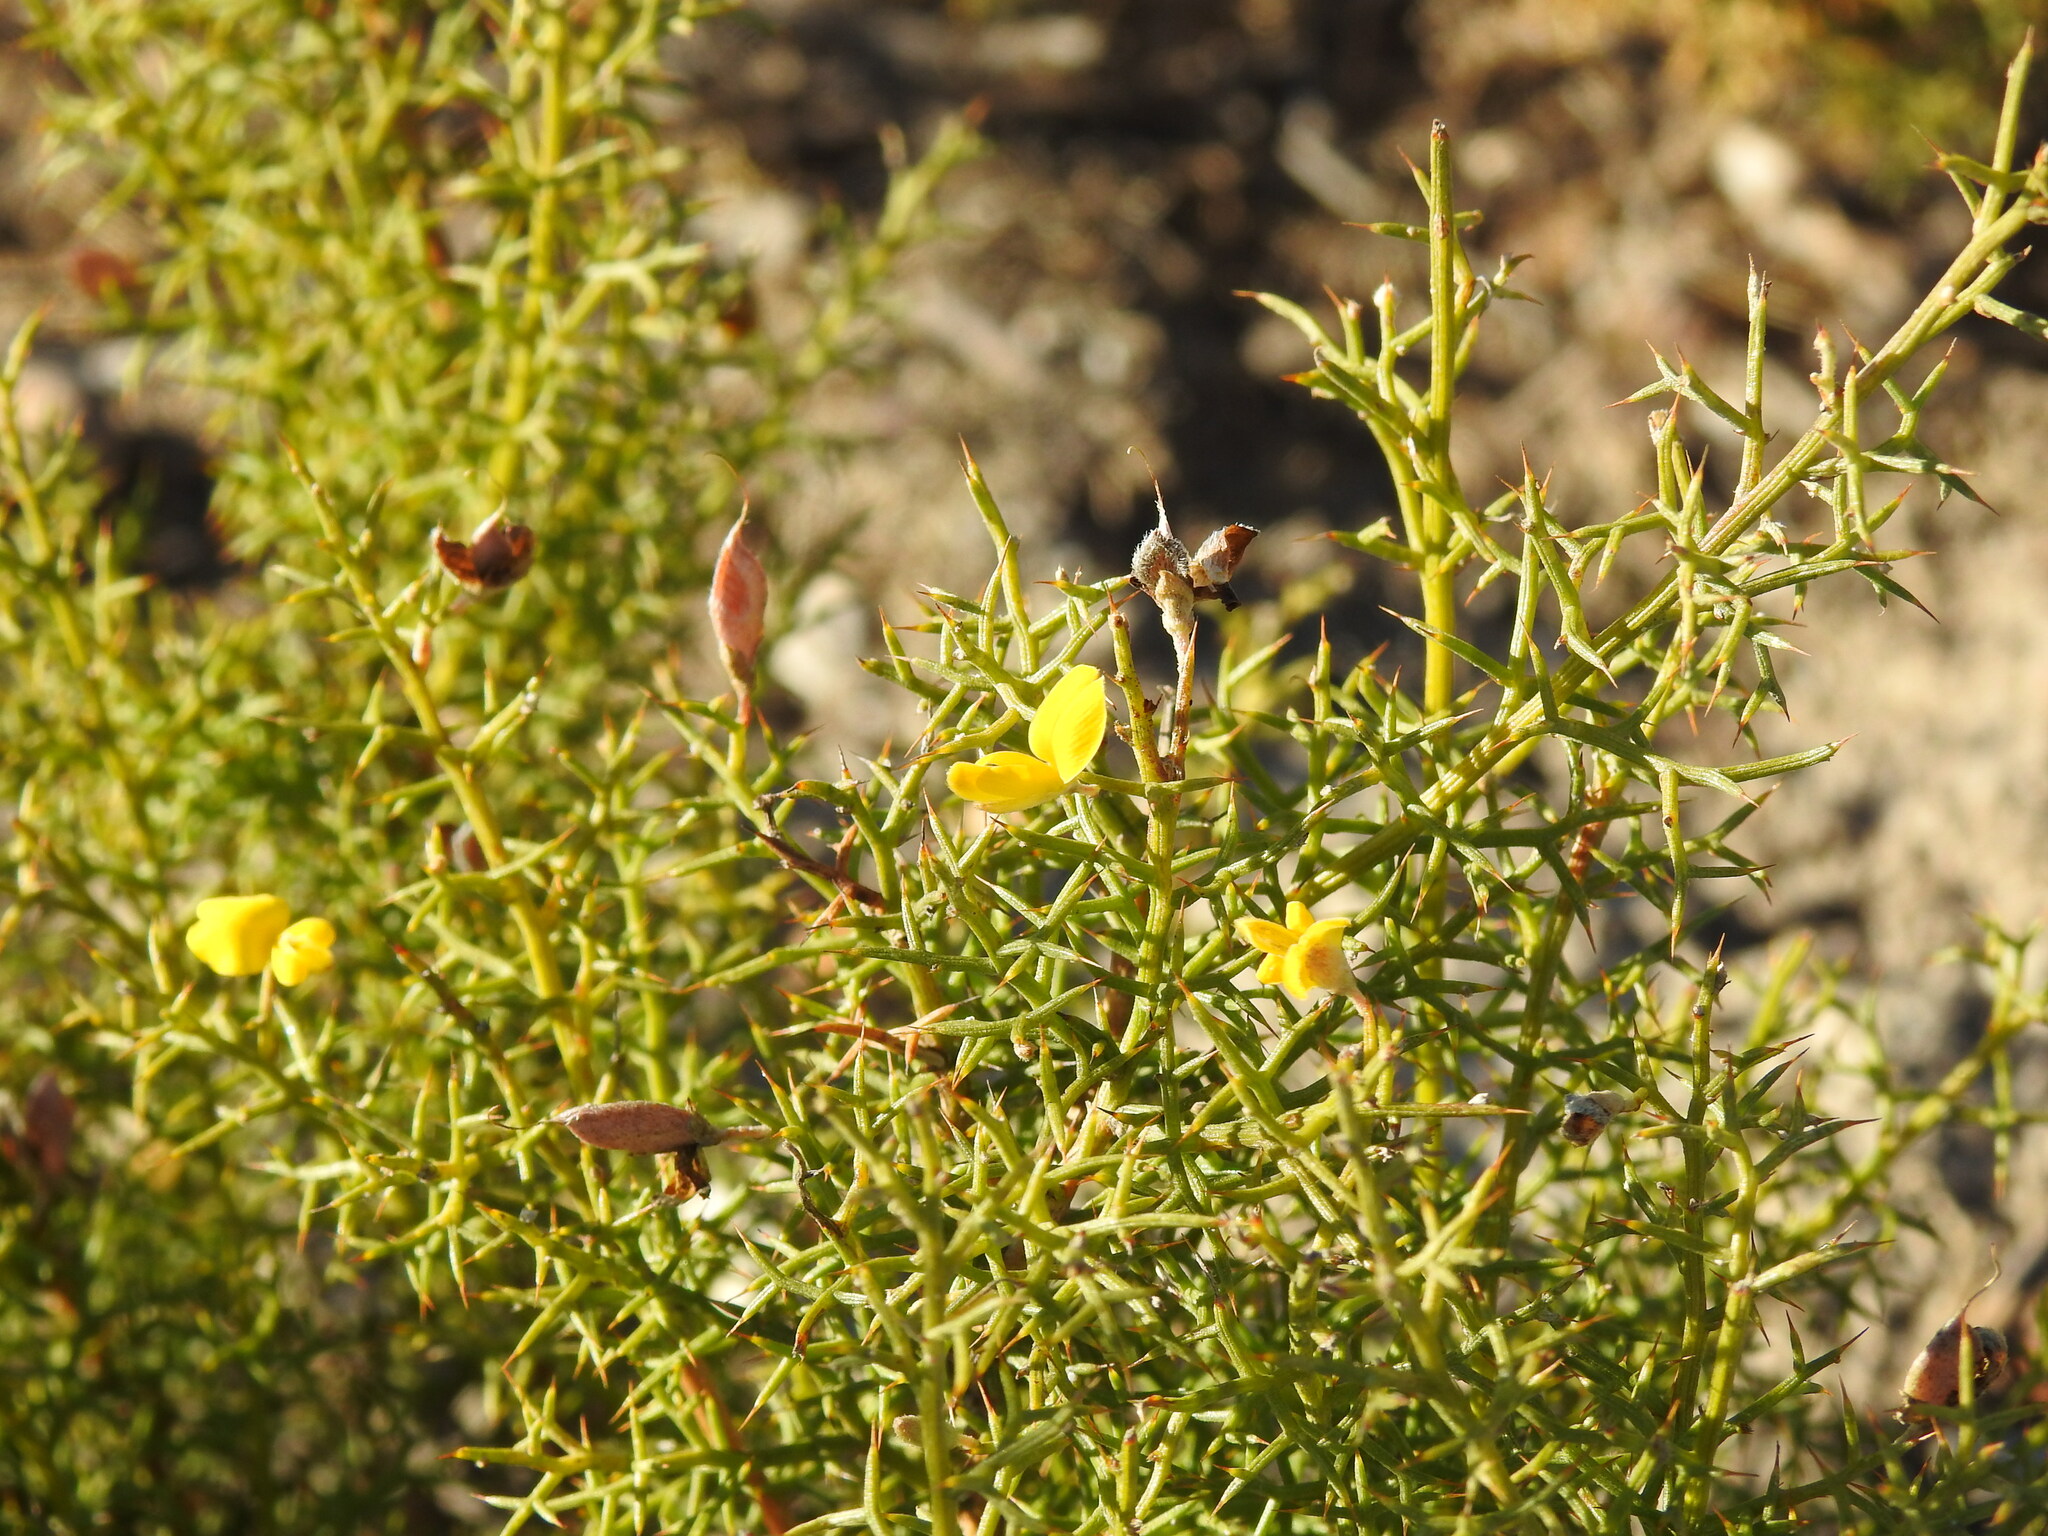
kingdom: Plantae
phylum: Tracheophyta
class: Magnoliopsida
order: Fabales
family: Fabaceae
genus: Stauracanthus
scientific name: Stauracanthus boivinii
